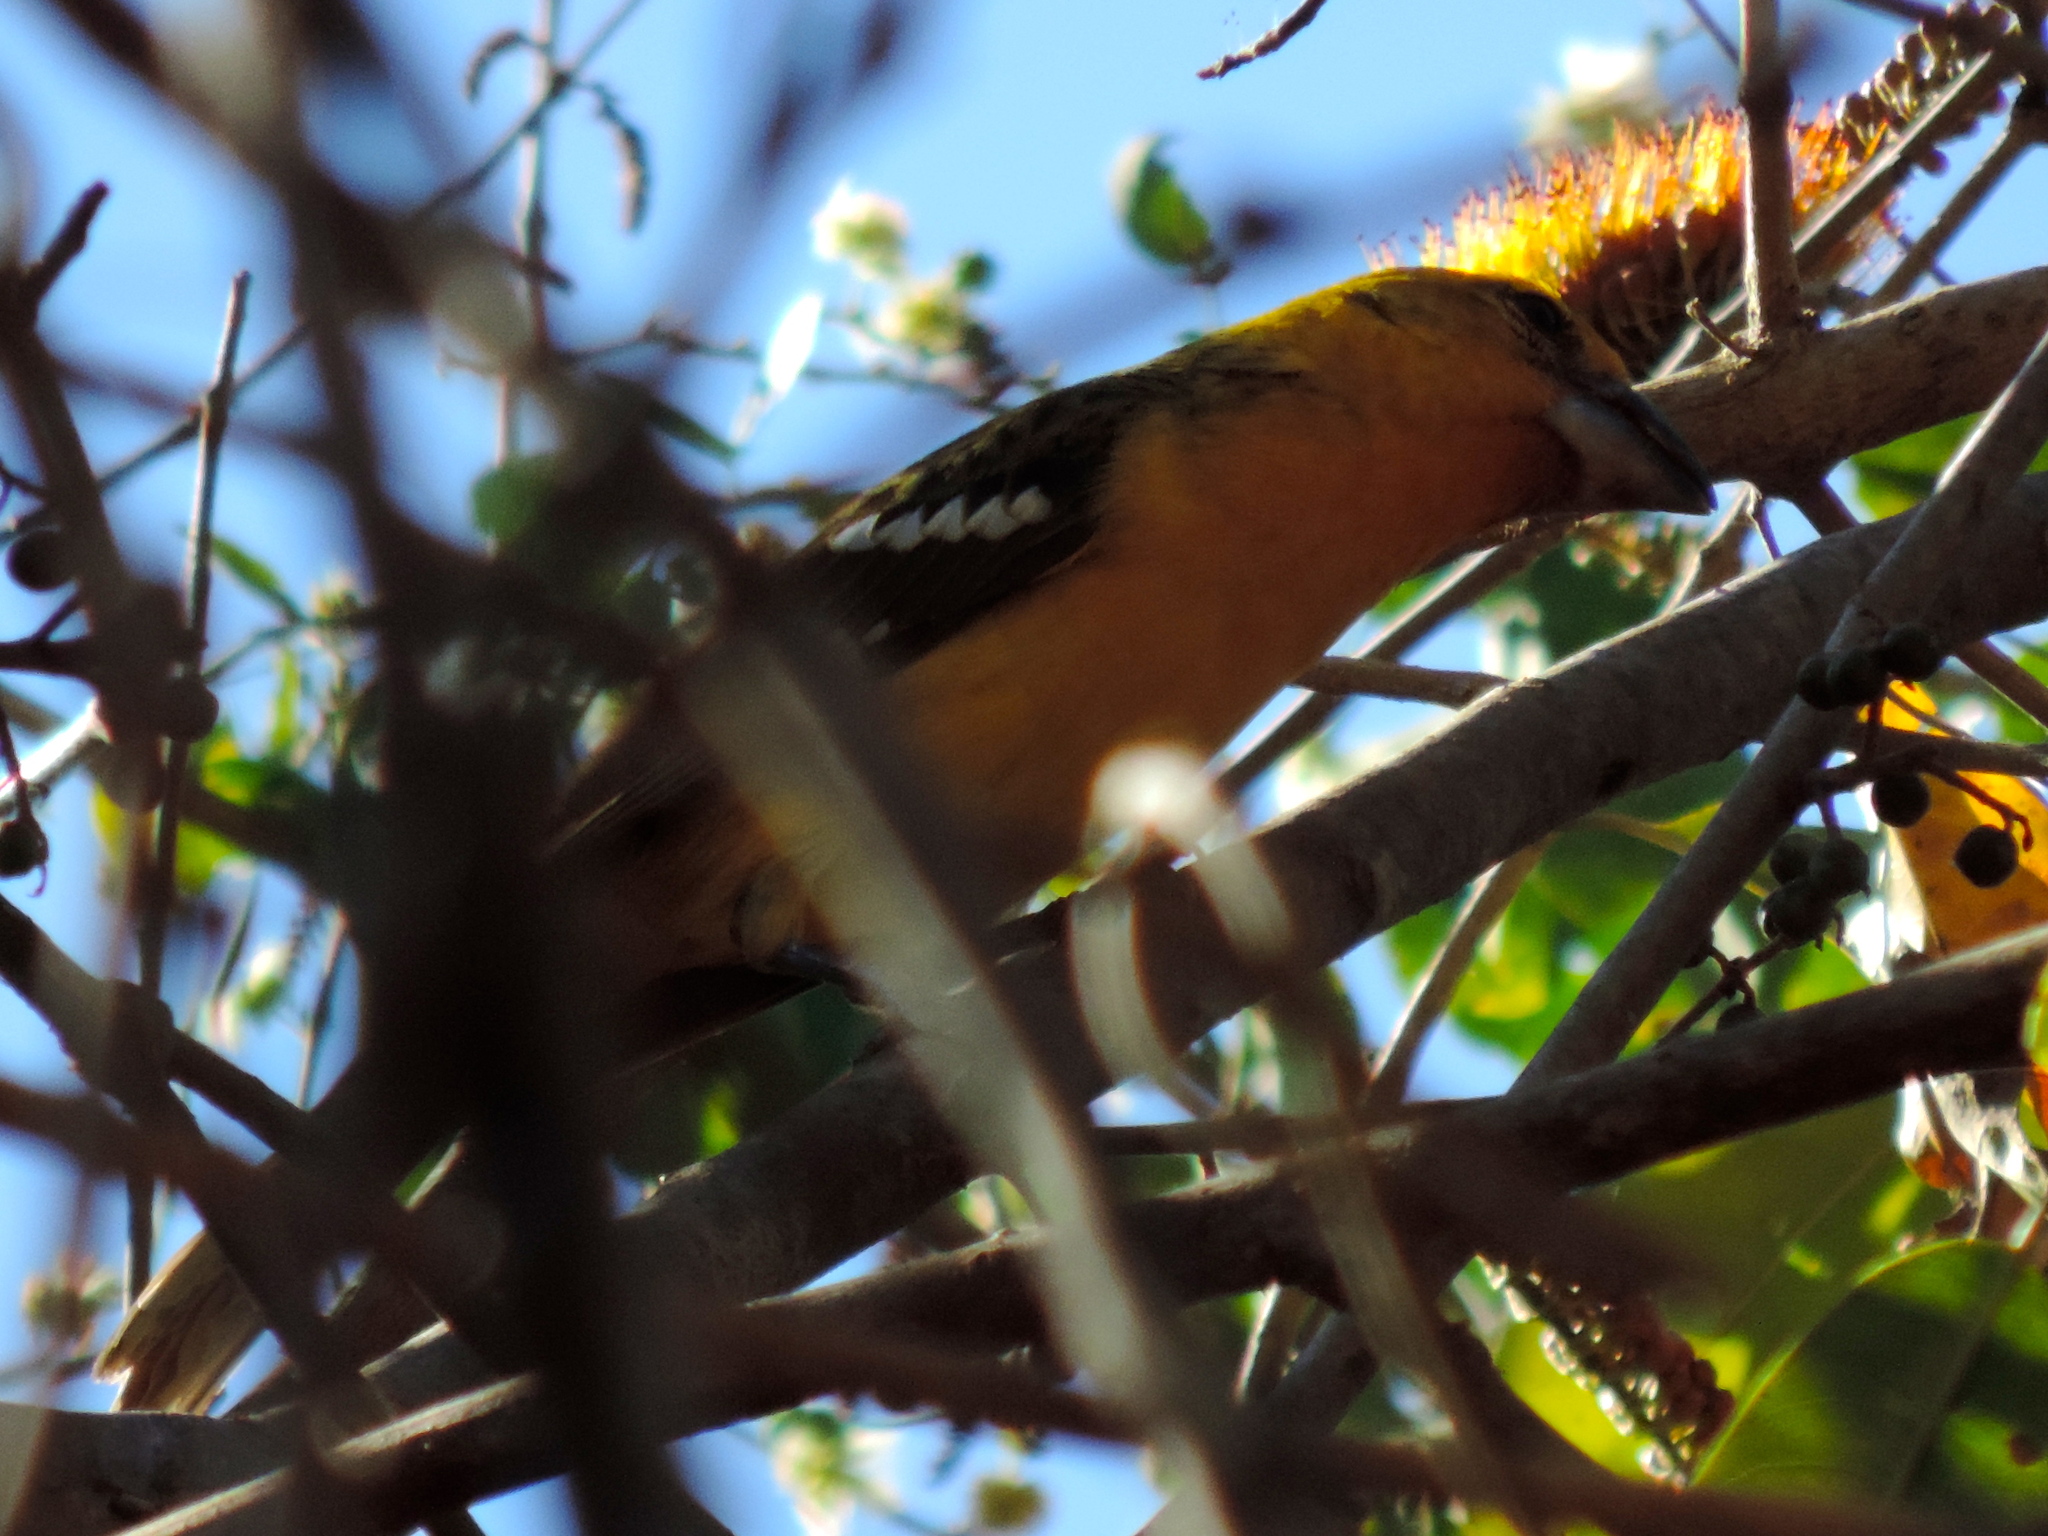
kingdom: Animalia
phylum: Chordata
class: Aves
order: Passeriformes
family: Cardinalidae
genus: Pheucticus
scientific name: Pheucticus chrysopeplus
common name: Yellow grosbeak
